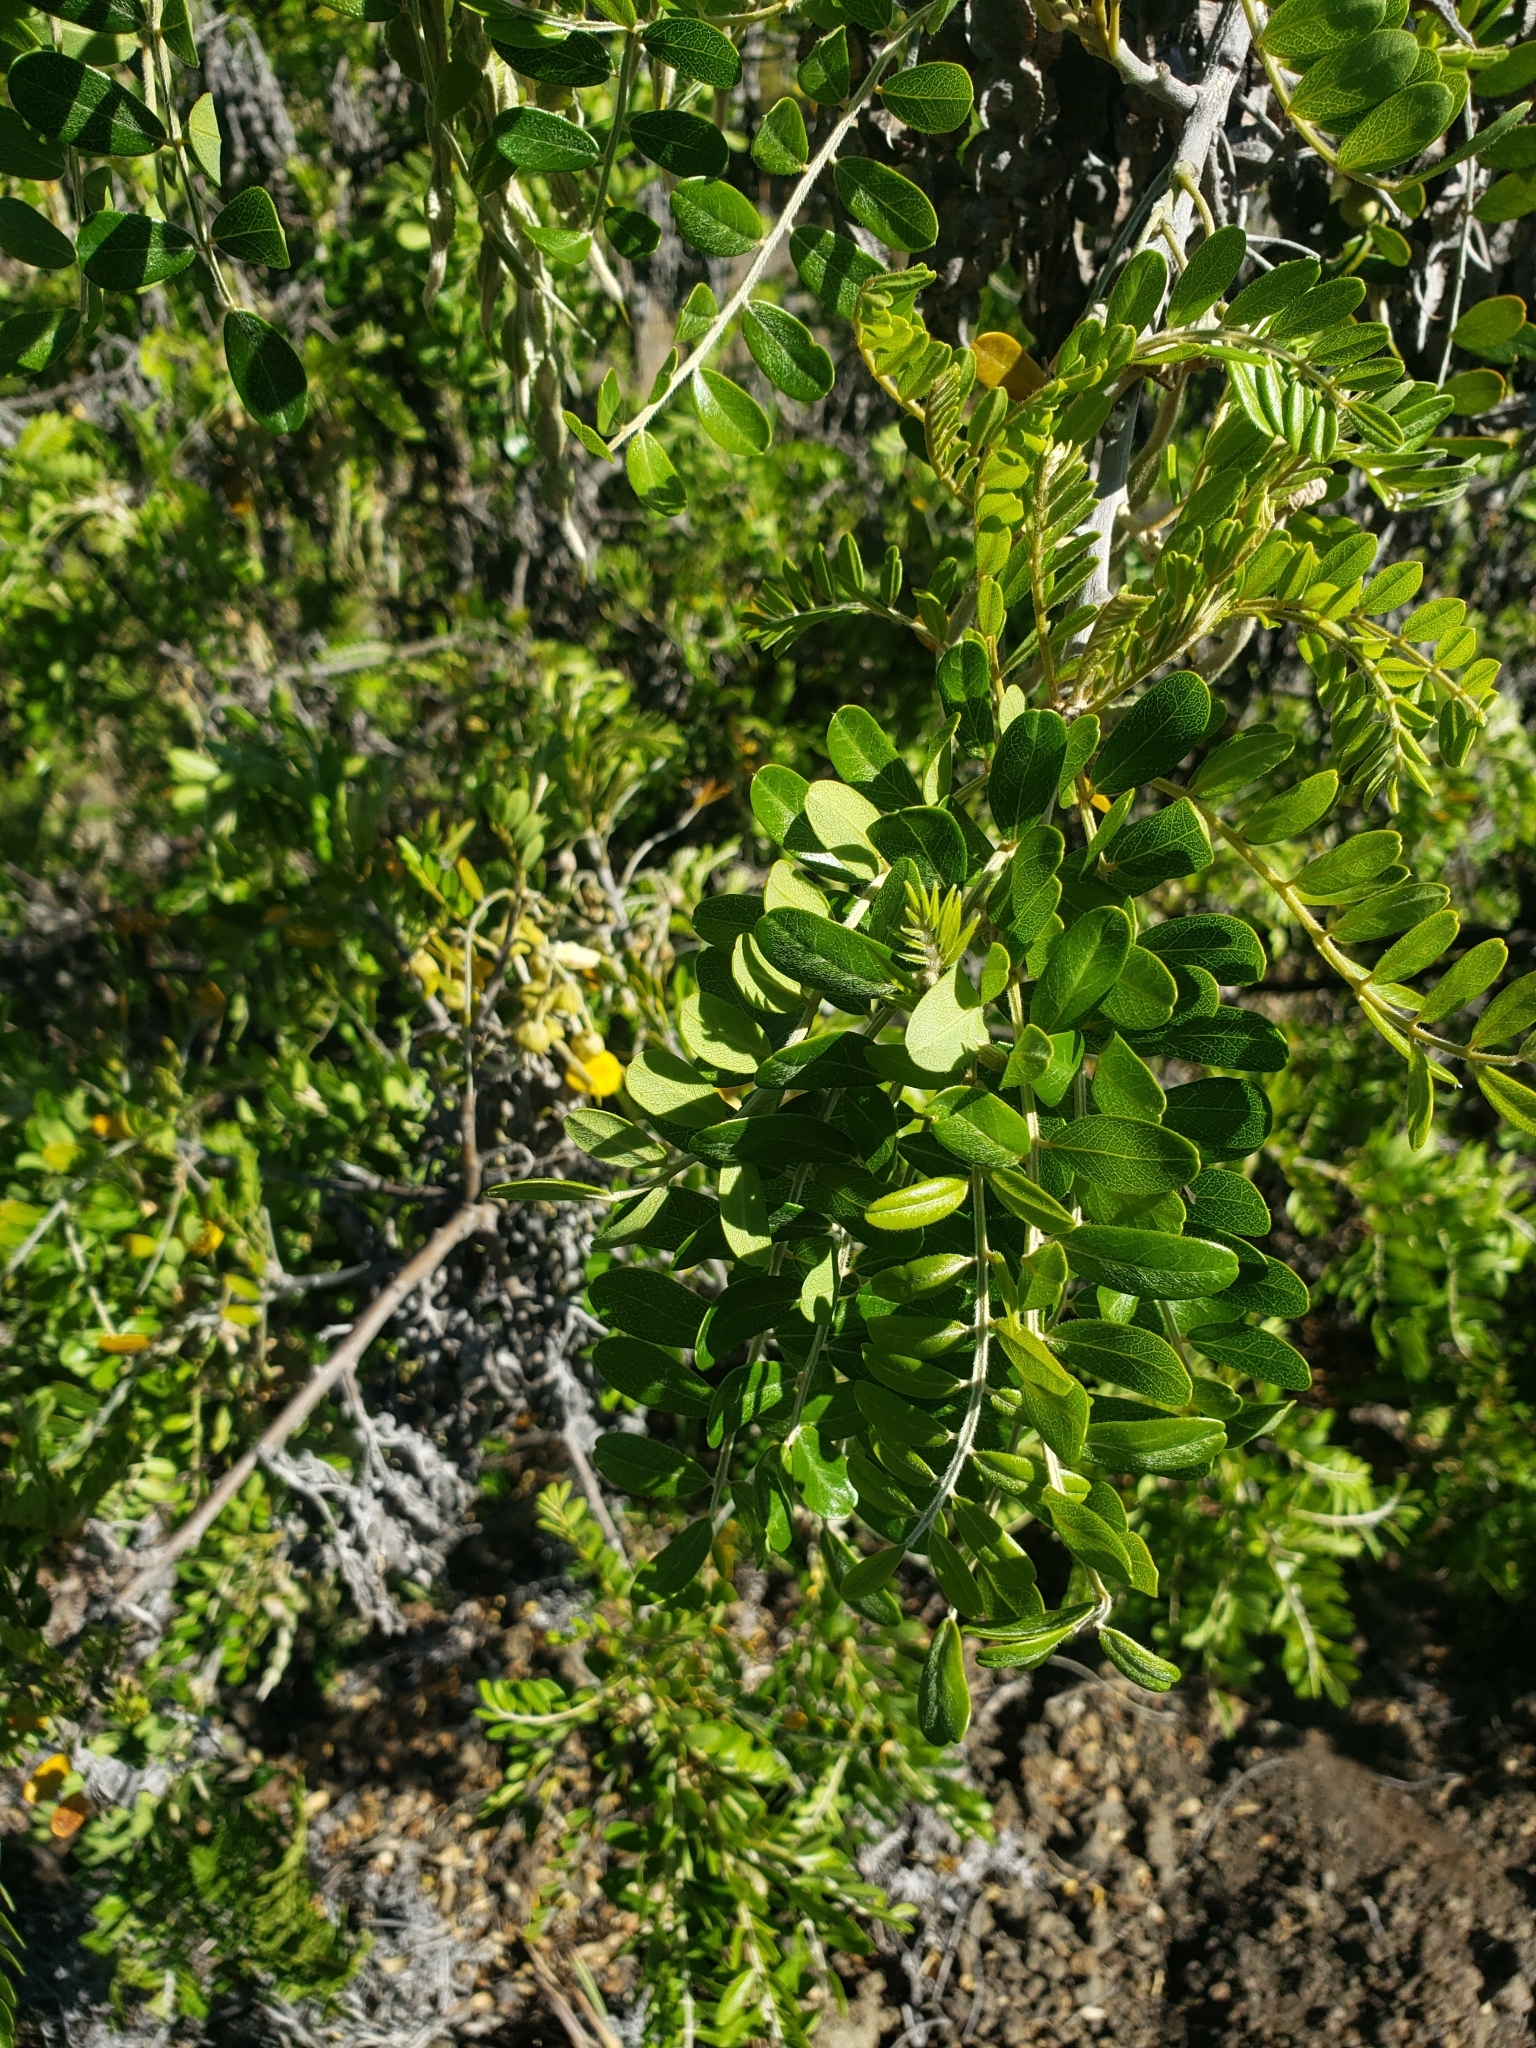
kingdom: Plantae
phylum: Tracheophyta
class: Magnoliopsida
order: Fabales
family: Fabaceae
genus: Sophora
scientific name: Sophora chrysophylla
